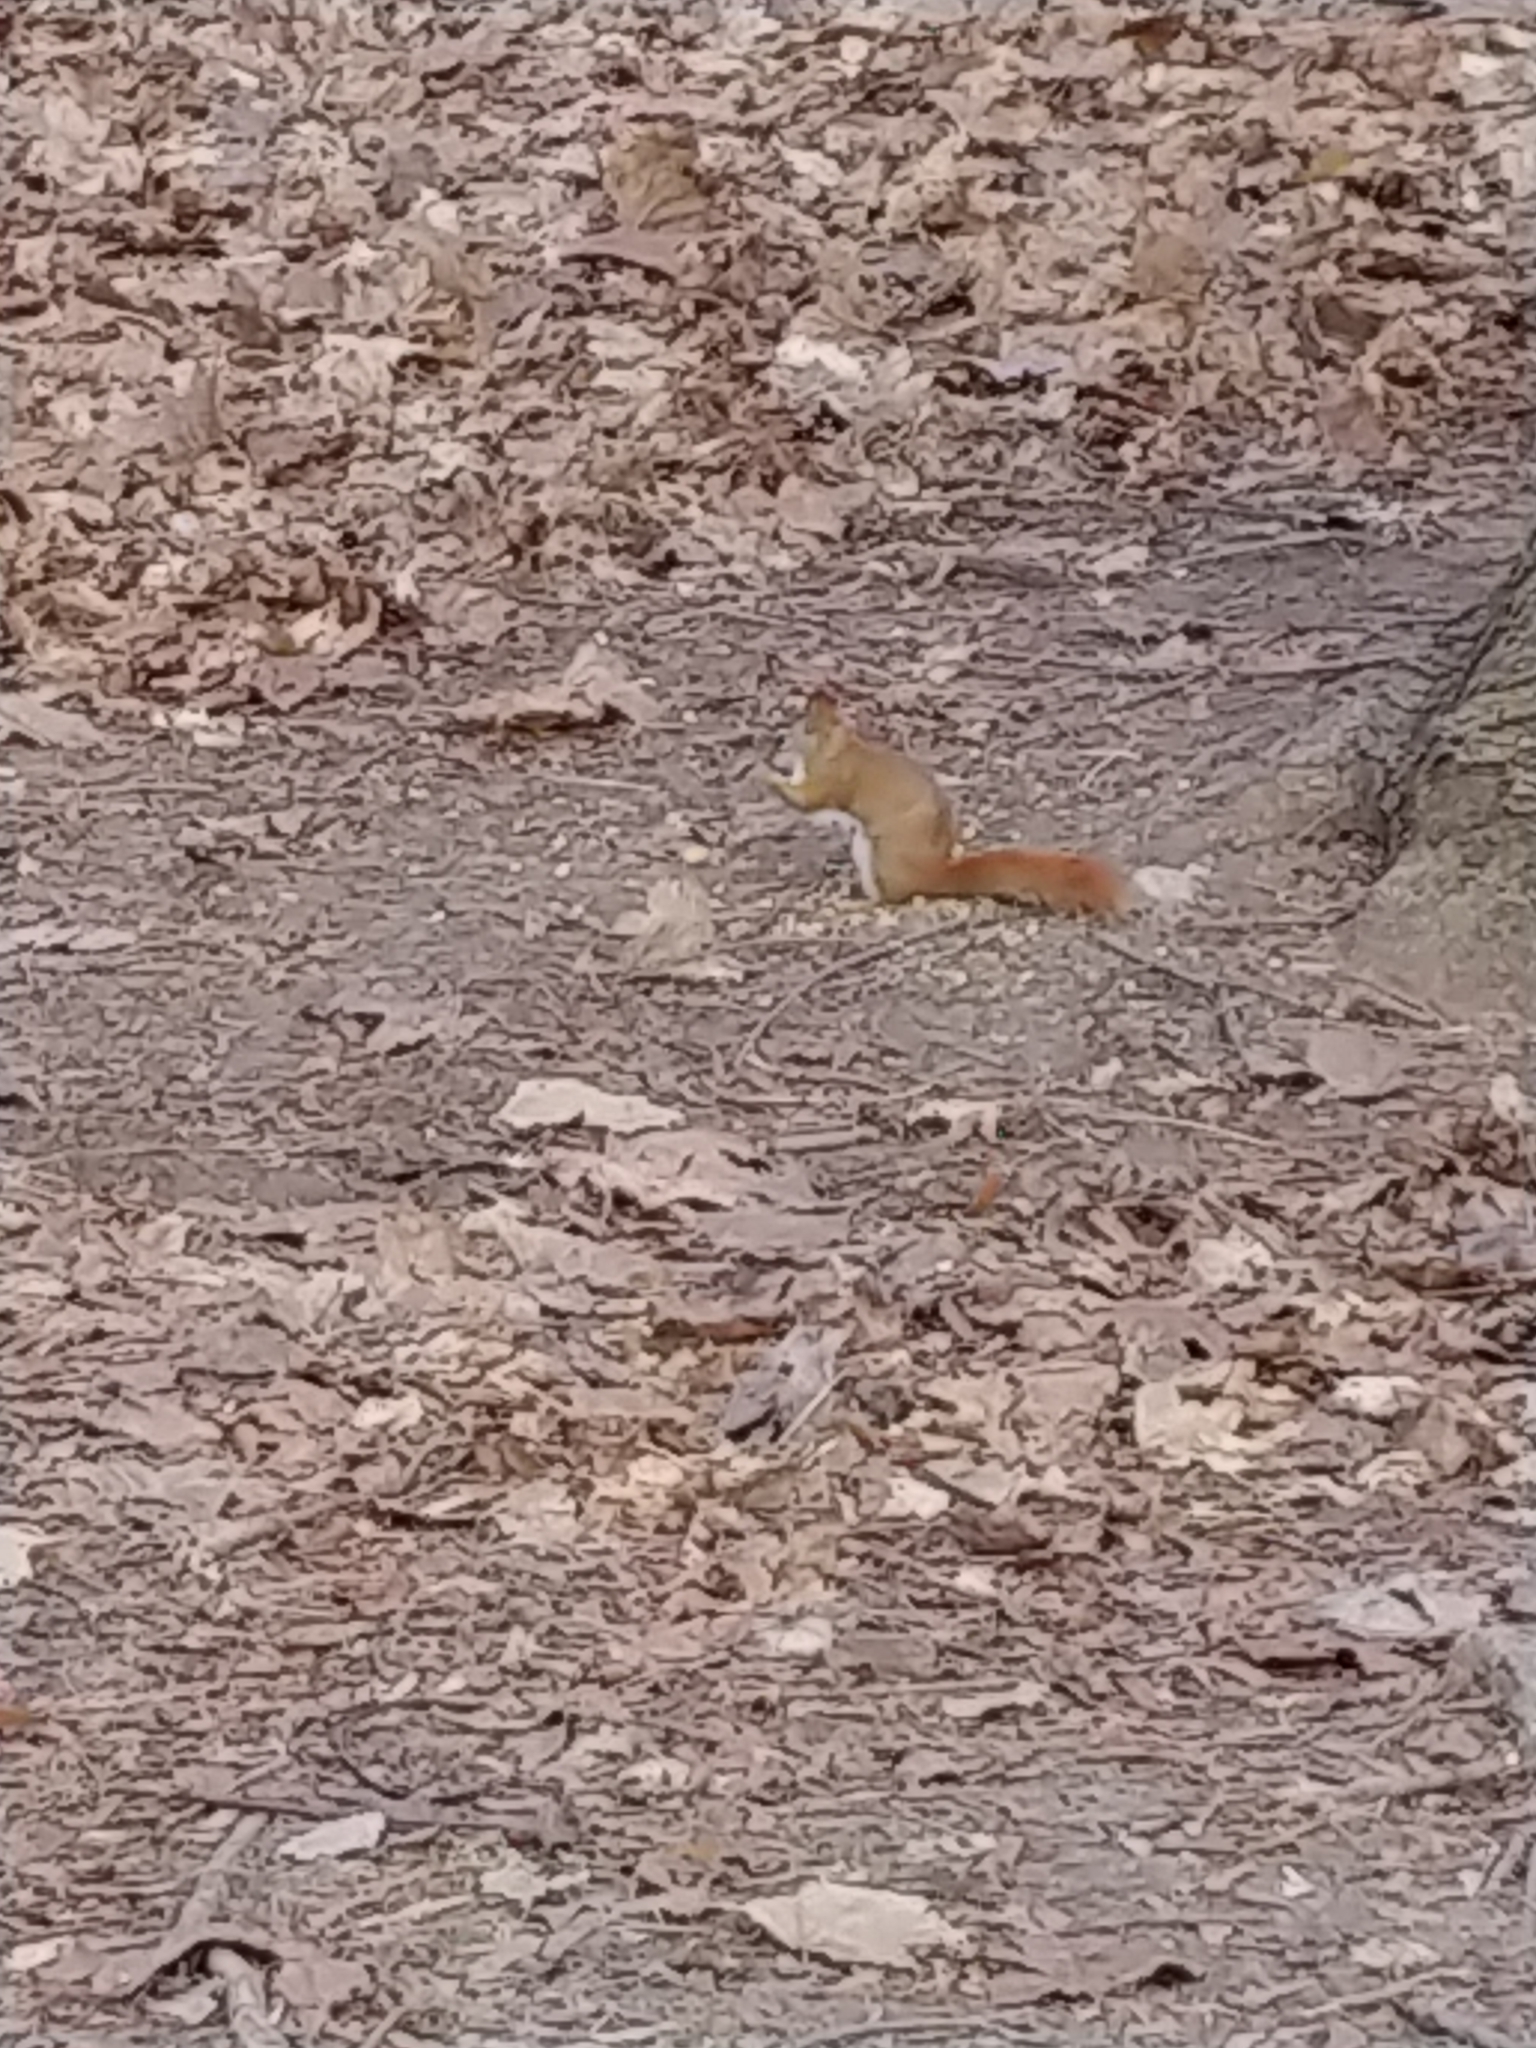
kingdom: Animalia
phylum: Chordata
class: Mammalia
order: Rodentia
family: Sciuridae
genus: Tamiasciurus
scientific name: Tamiasciurus hudsonicus
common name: Red squirrel
